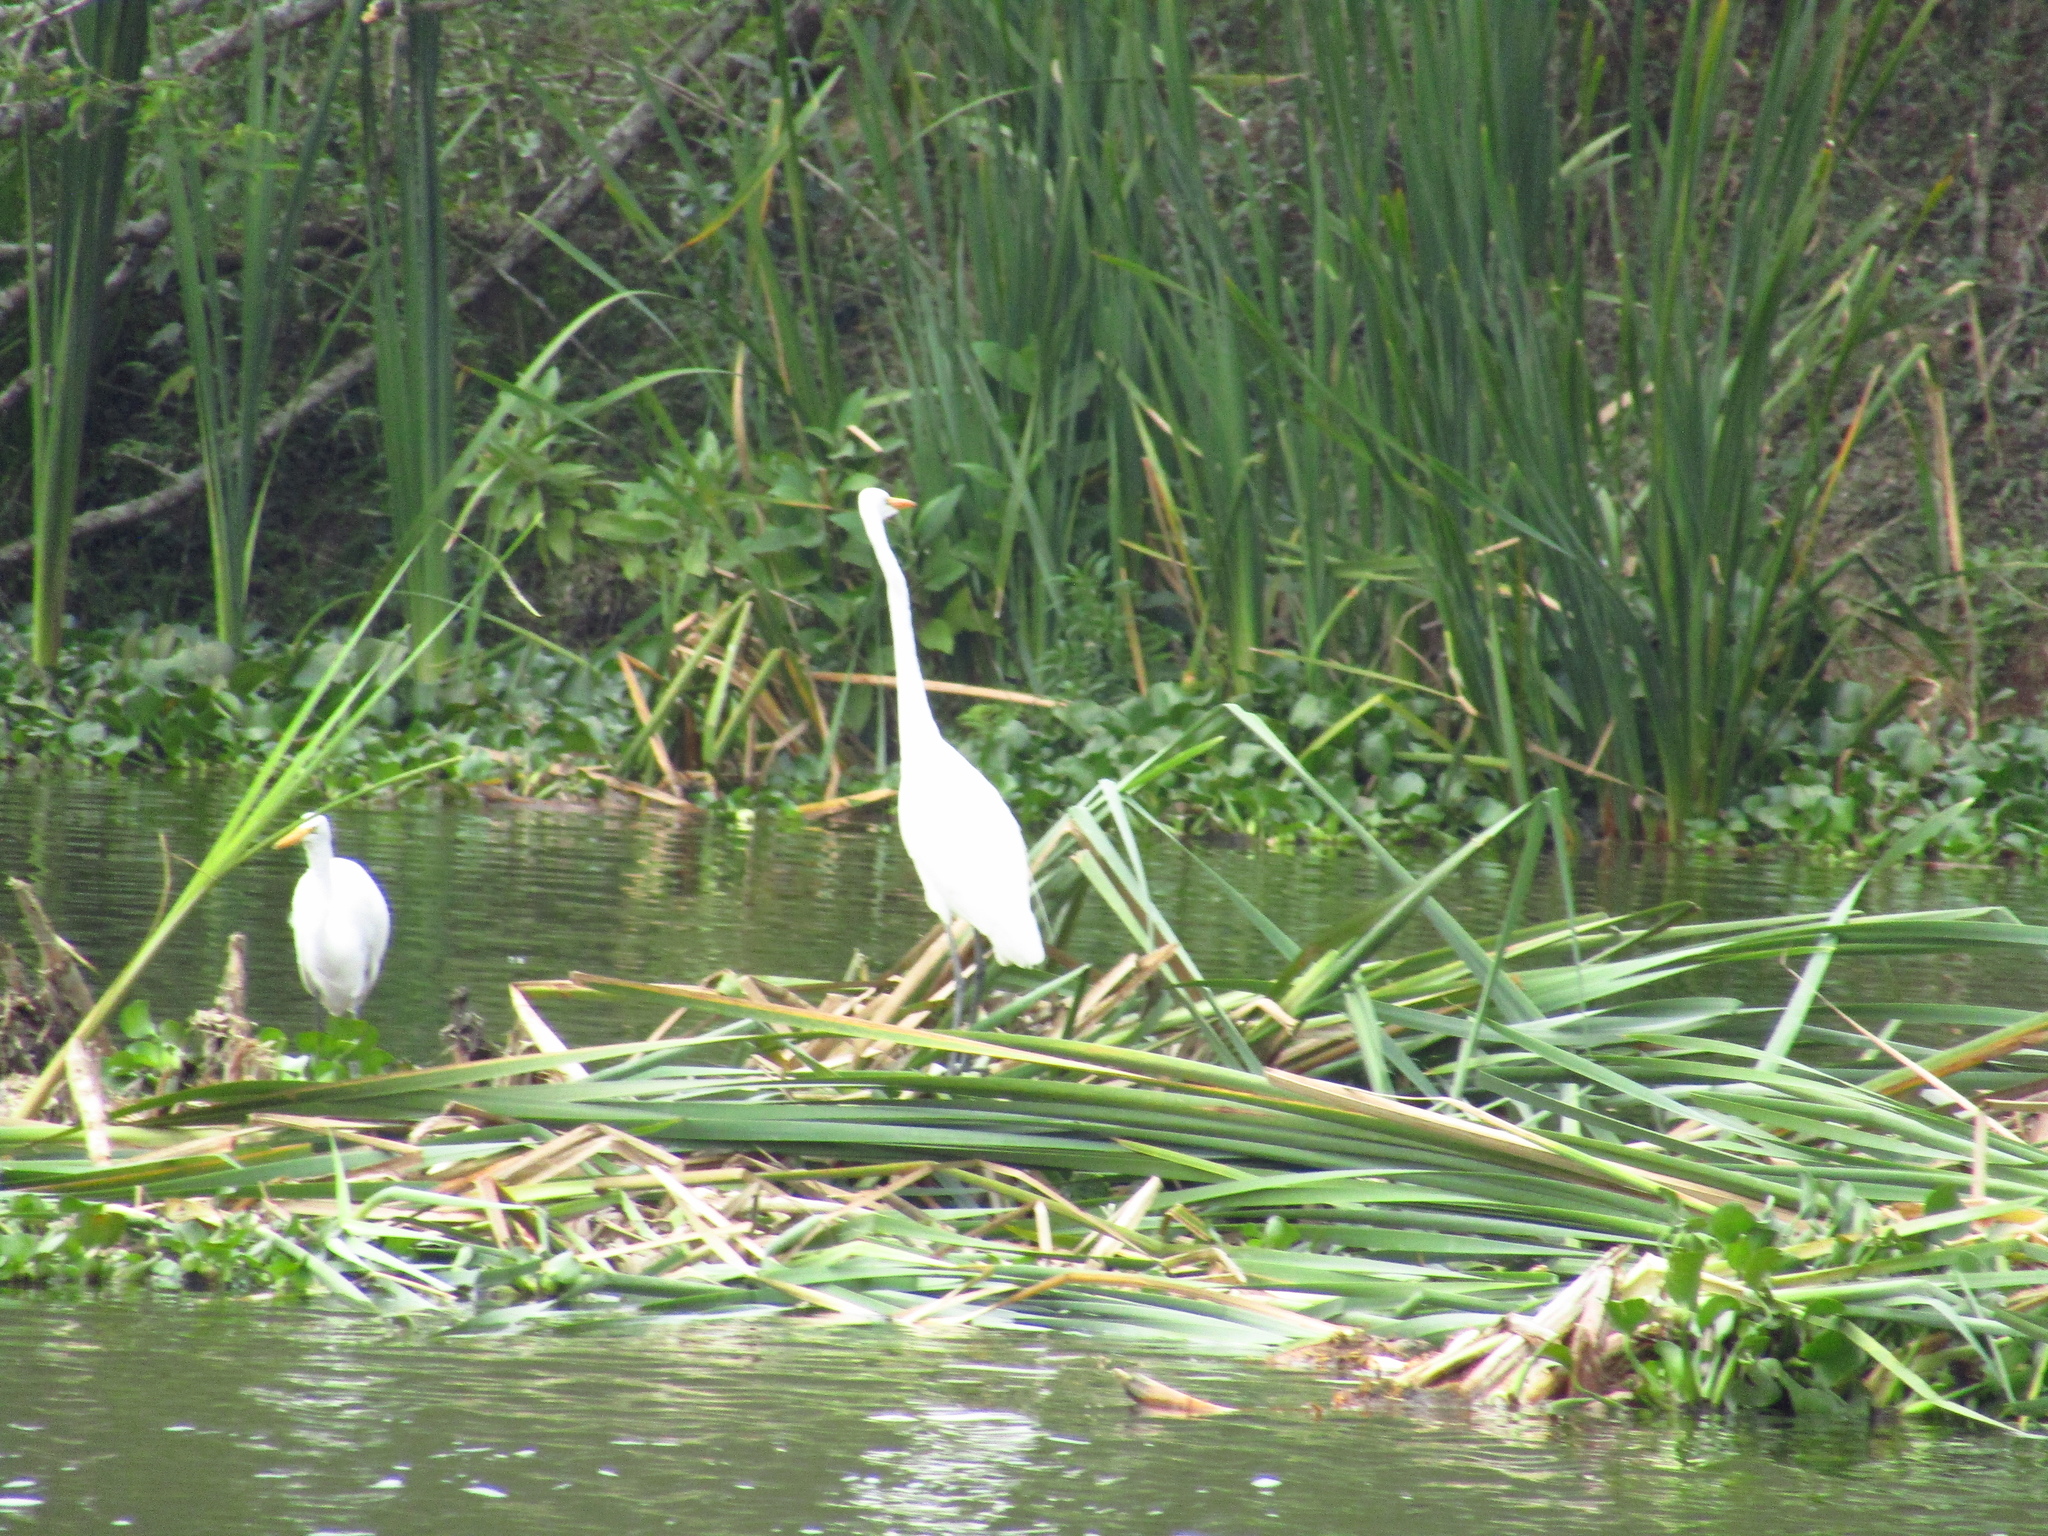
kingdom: Animalia
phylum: Chordata
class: Aves
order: Pelecaniformes
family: Ardeidae
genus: Ardea
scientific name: Ardea alba
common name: Great egret
